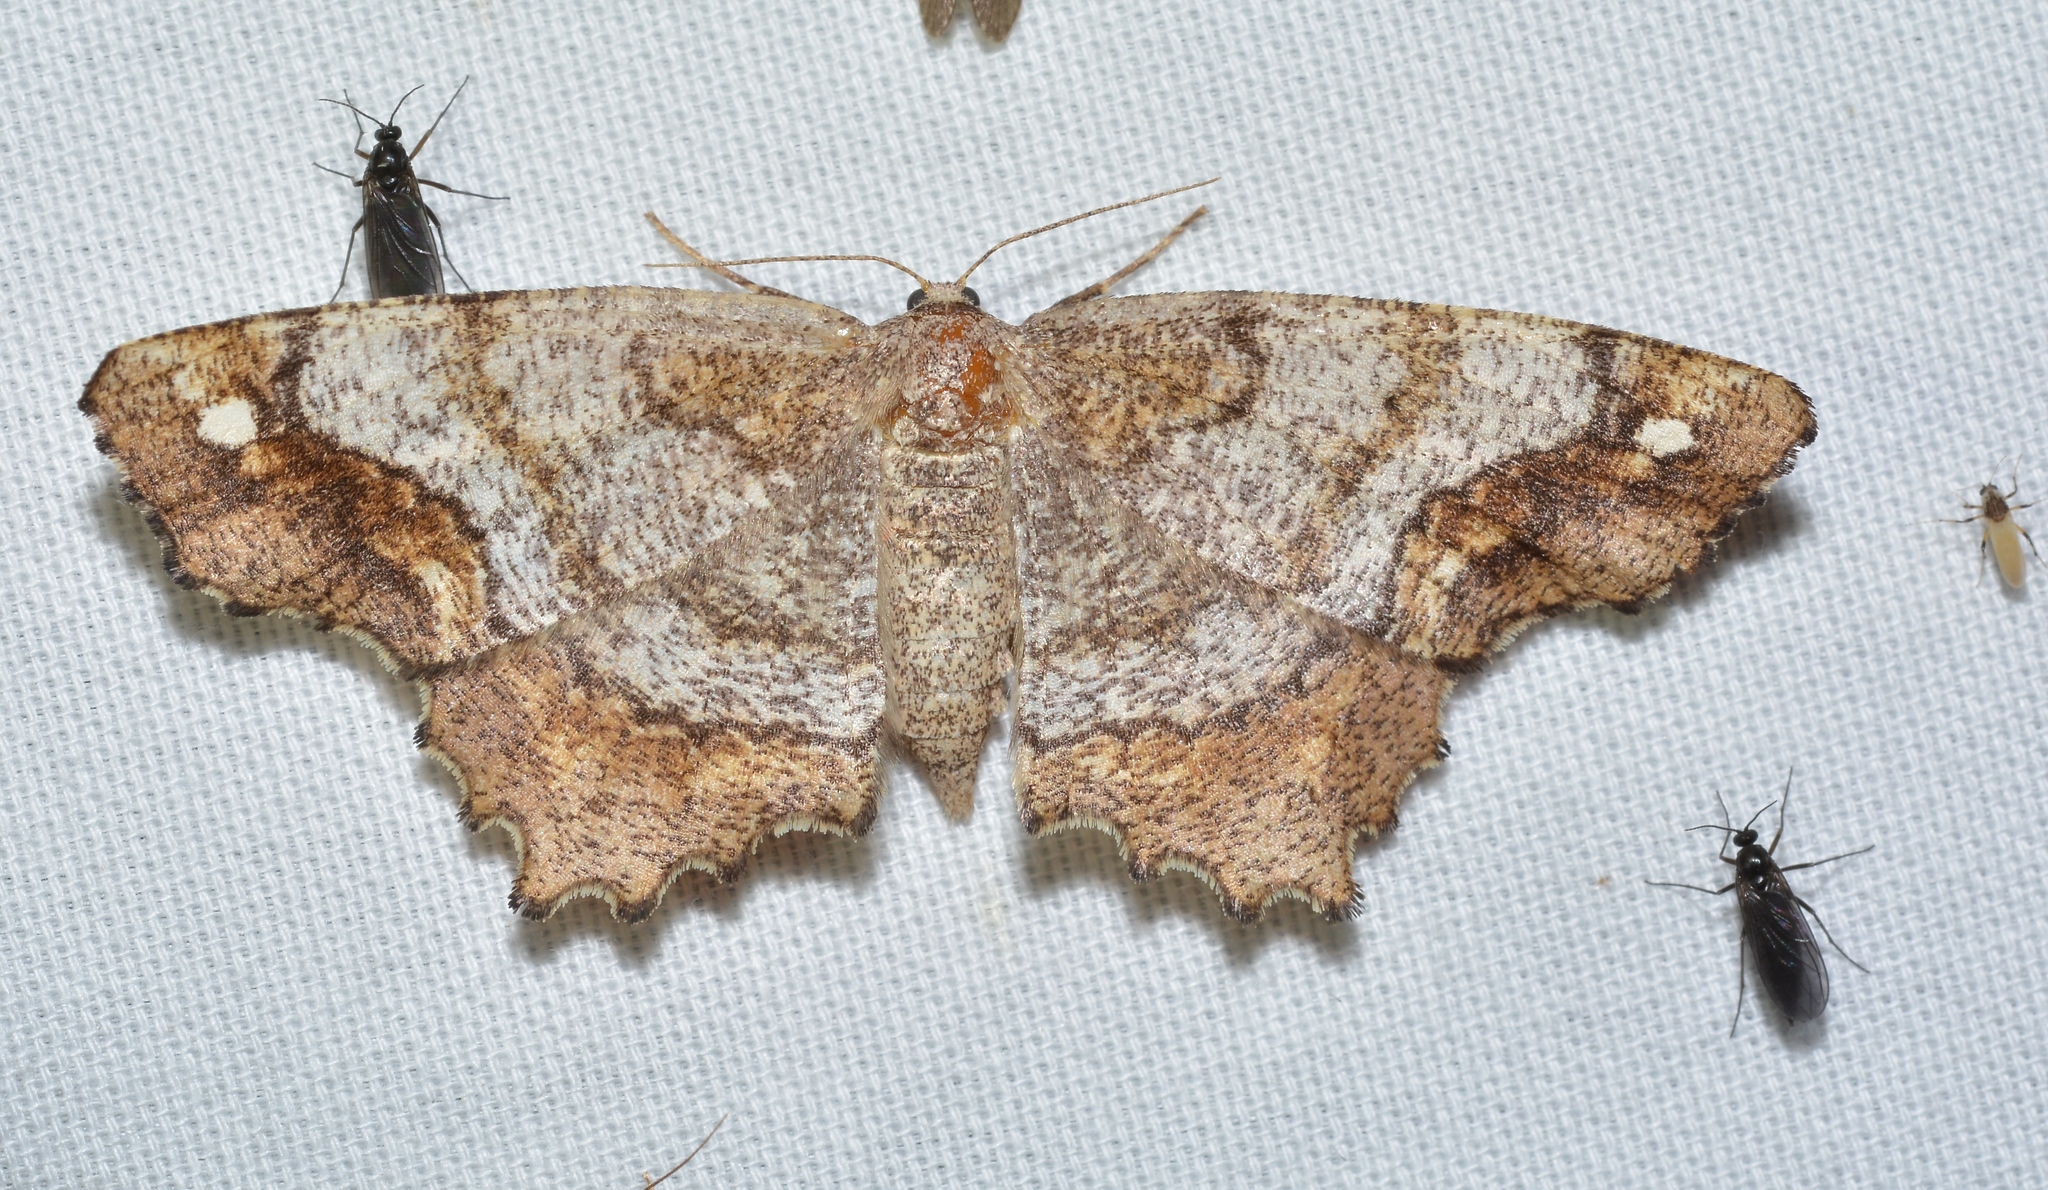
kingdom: Animalia
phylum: Arthropoda
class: Insecta
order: Lepidoptera
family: Geometridae
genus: Hypagyrtis
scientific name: Hypagyrtis unipunctata
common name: One-spotted variant
